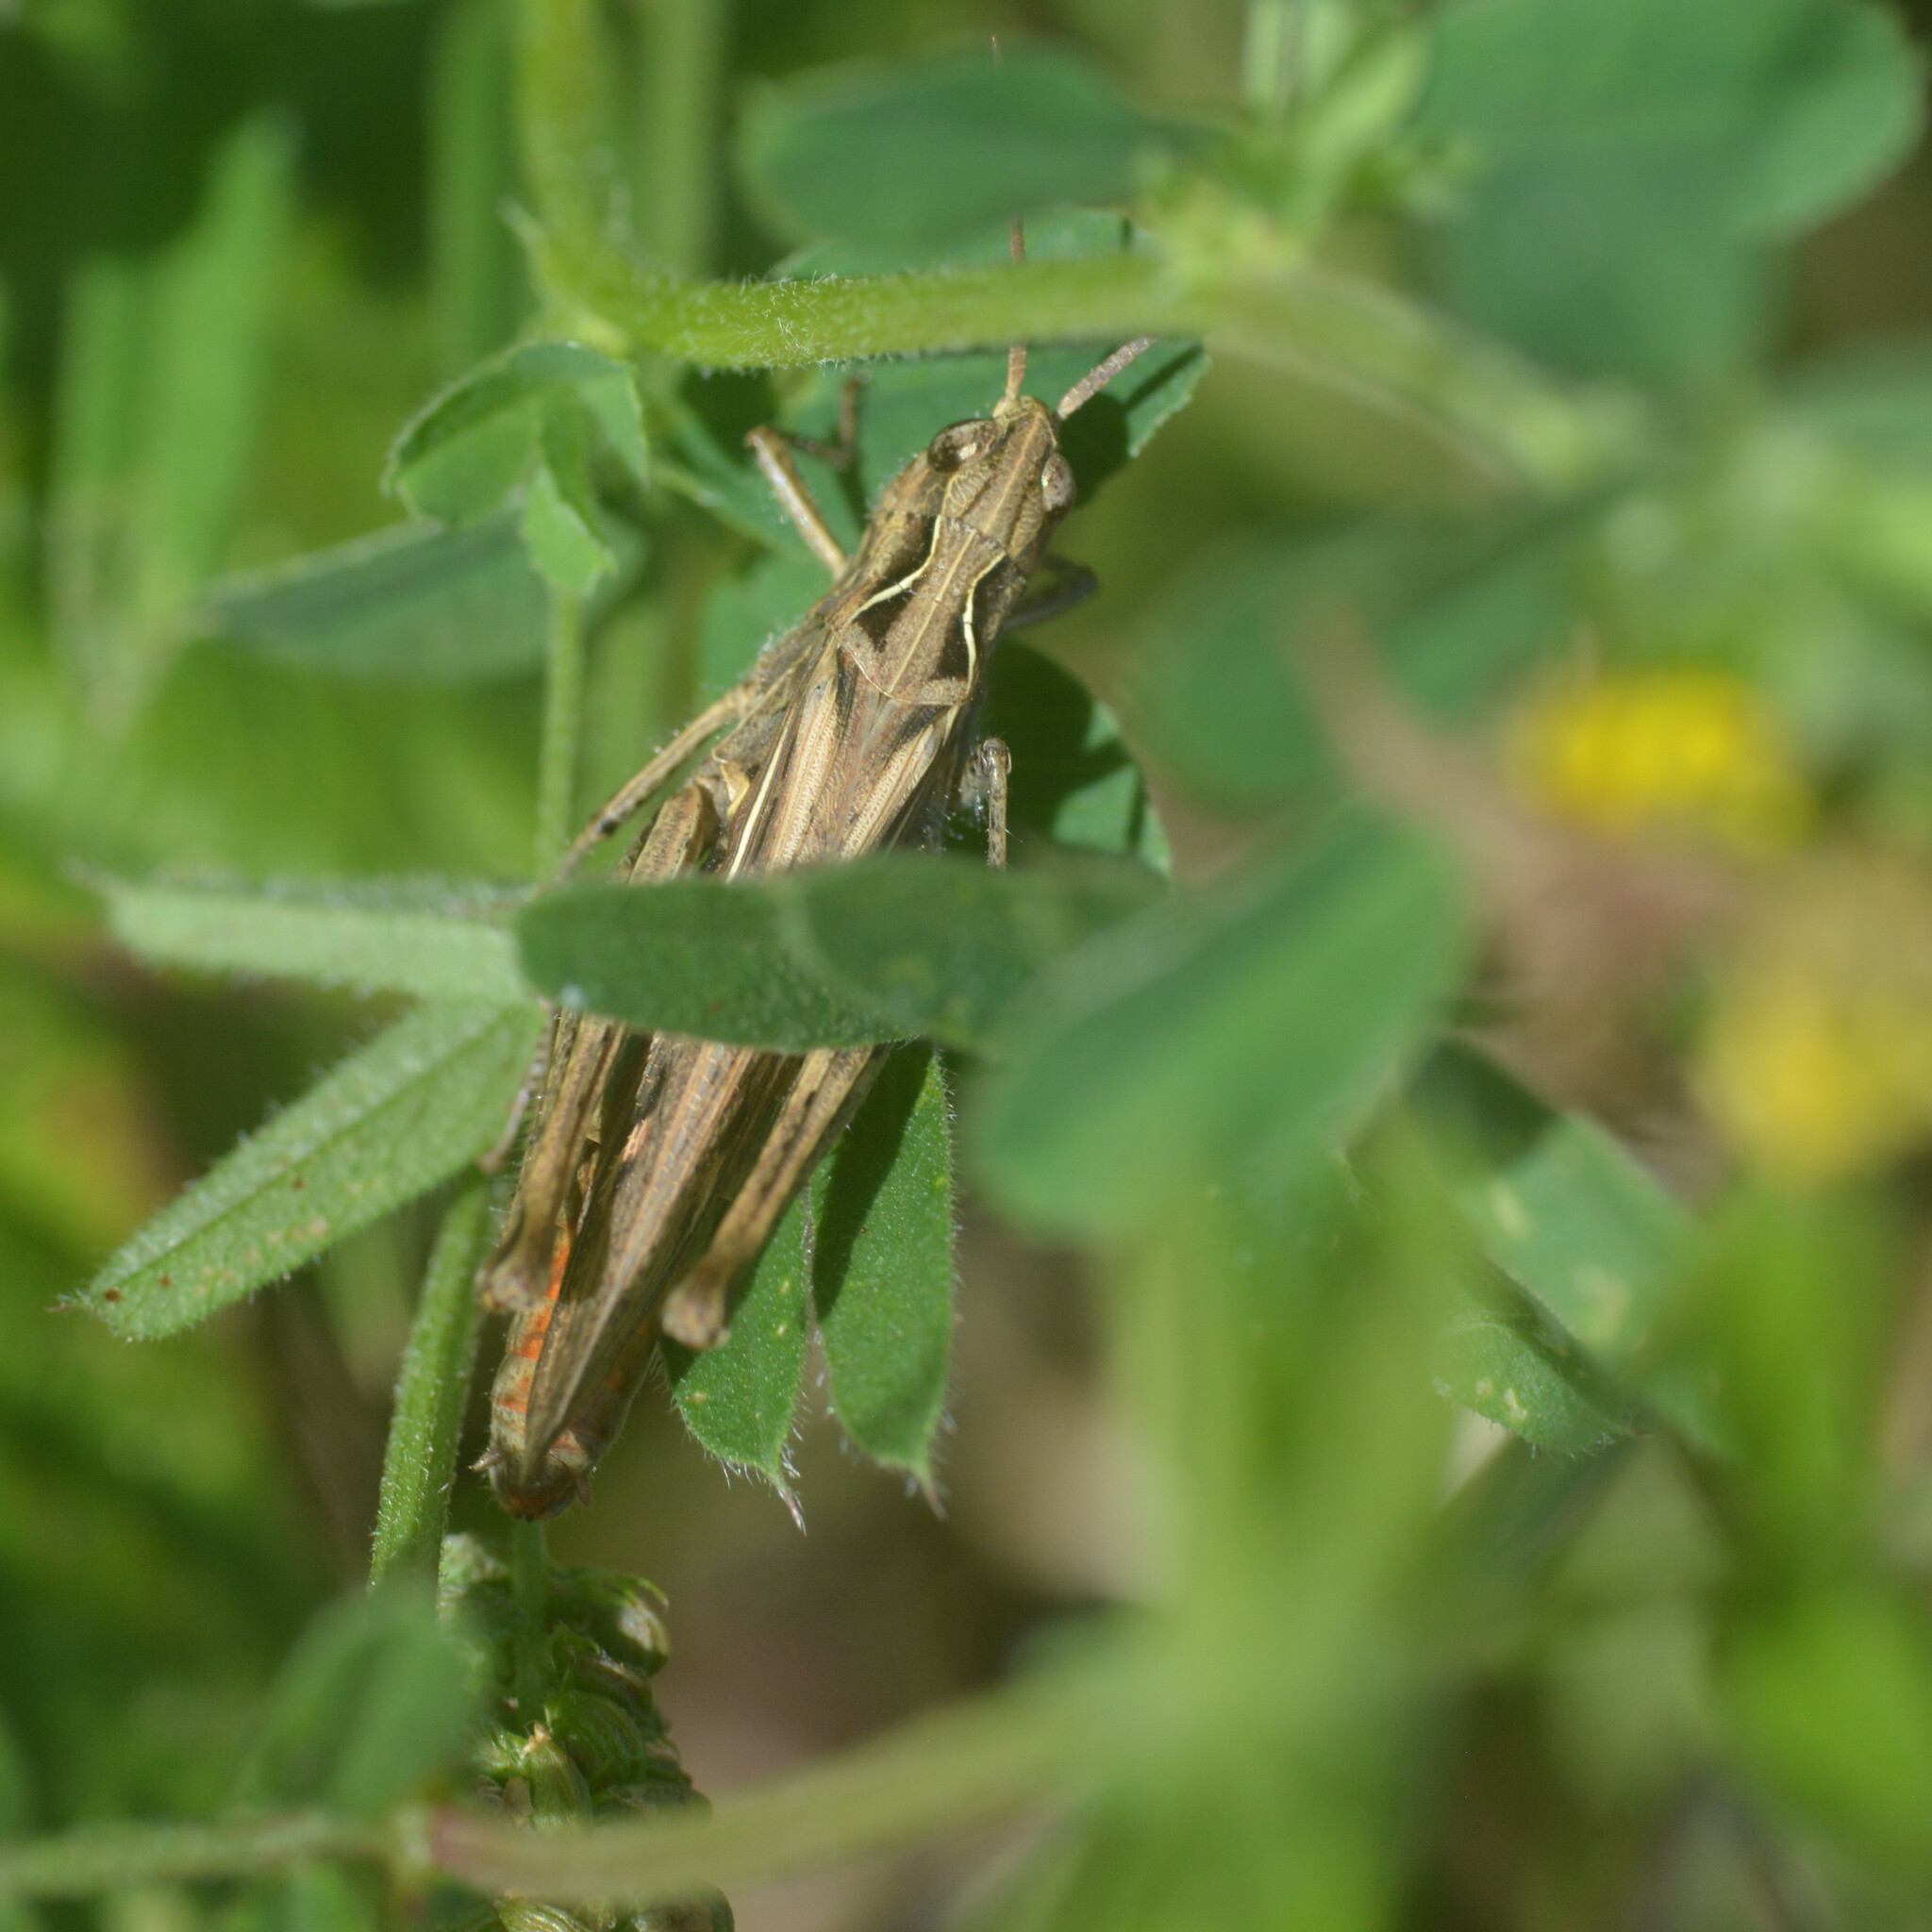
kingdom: Animalia
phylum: Arthropoda
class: Insecta
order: Orthoptera
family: Acrididae
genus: Chorthippus
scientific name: Chorthippus brunneus
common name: Field grasshopper
